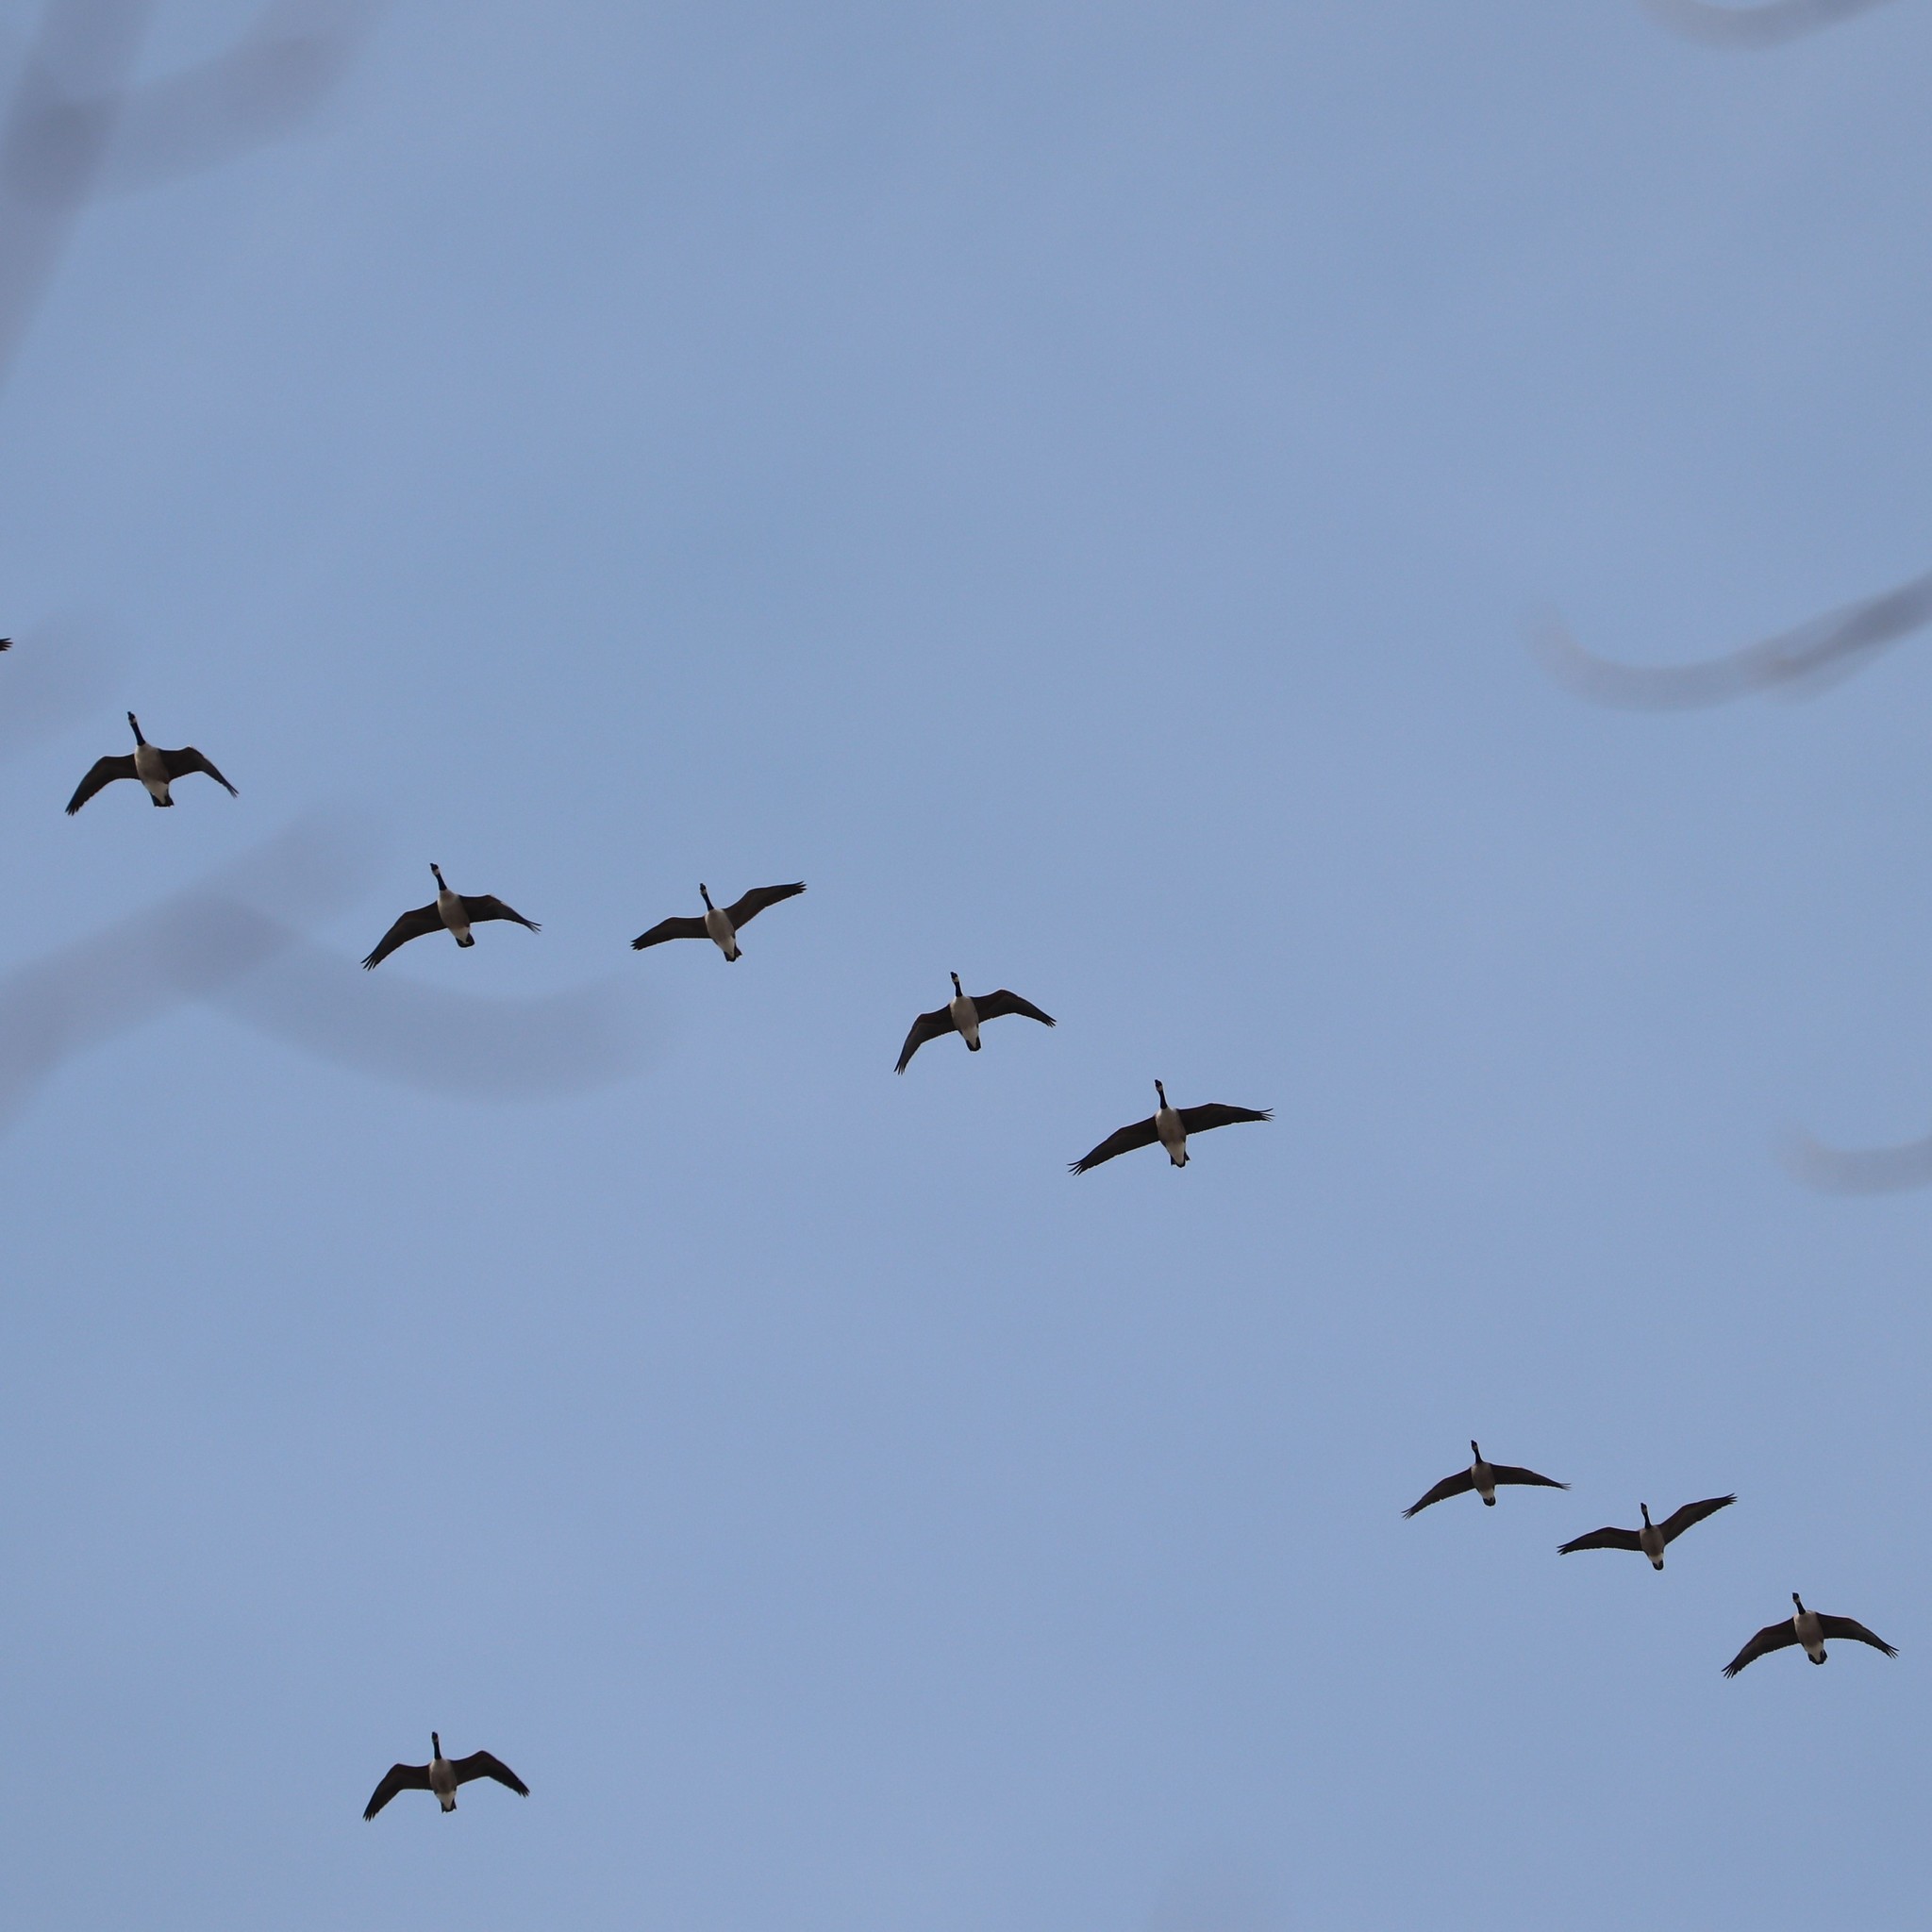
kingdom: Animalia
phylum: Chordata
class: Aves
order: Anseriformes
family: Anatidae
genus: Branta
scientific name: Branta canadensis
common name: Canada goose
